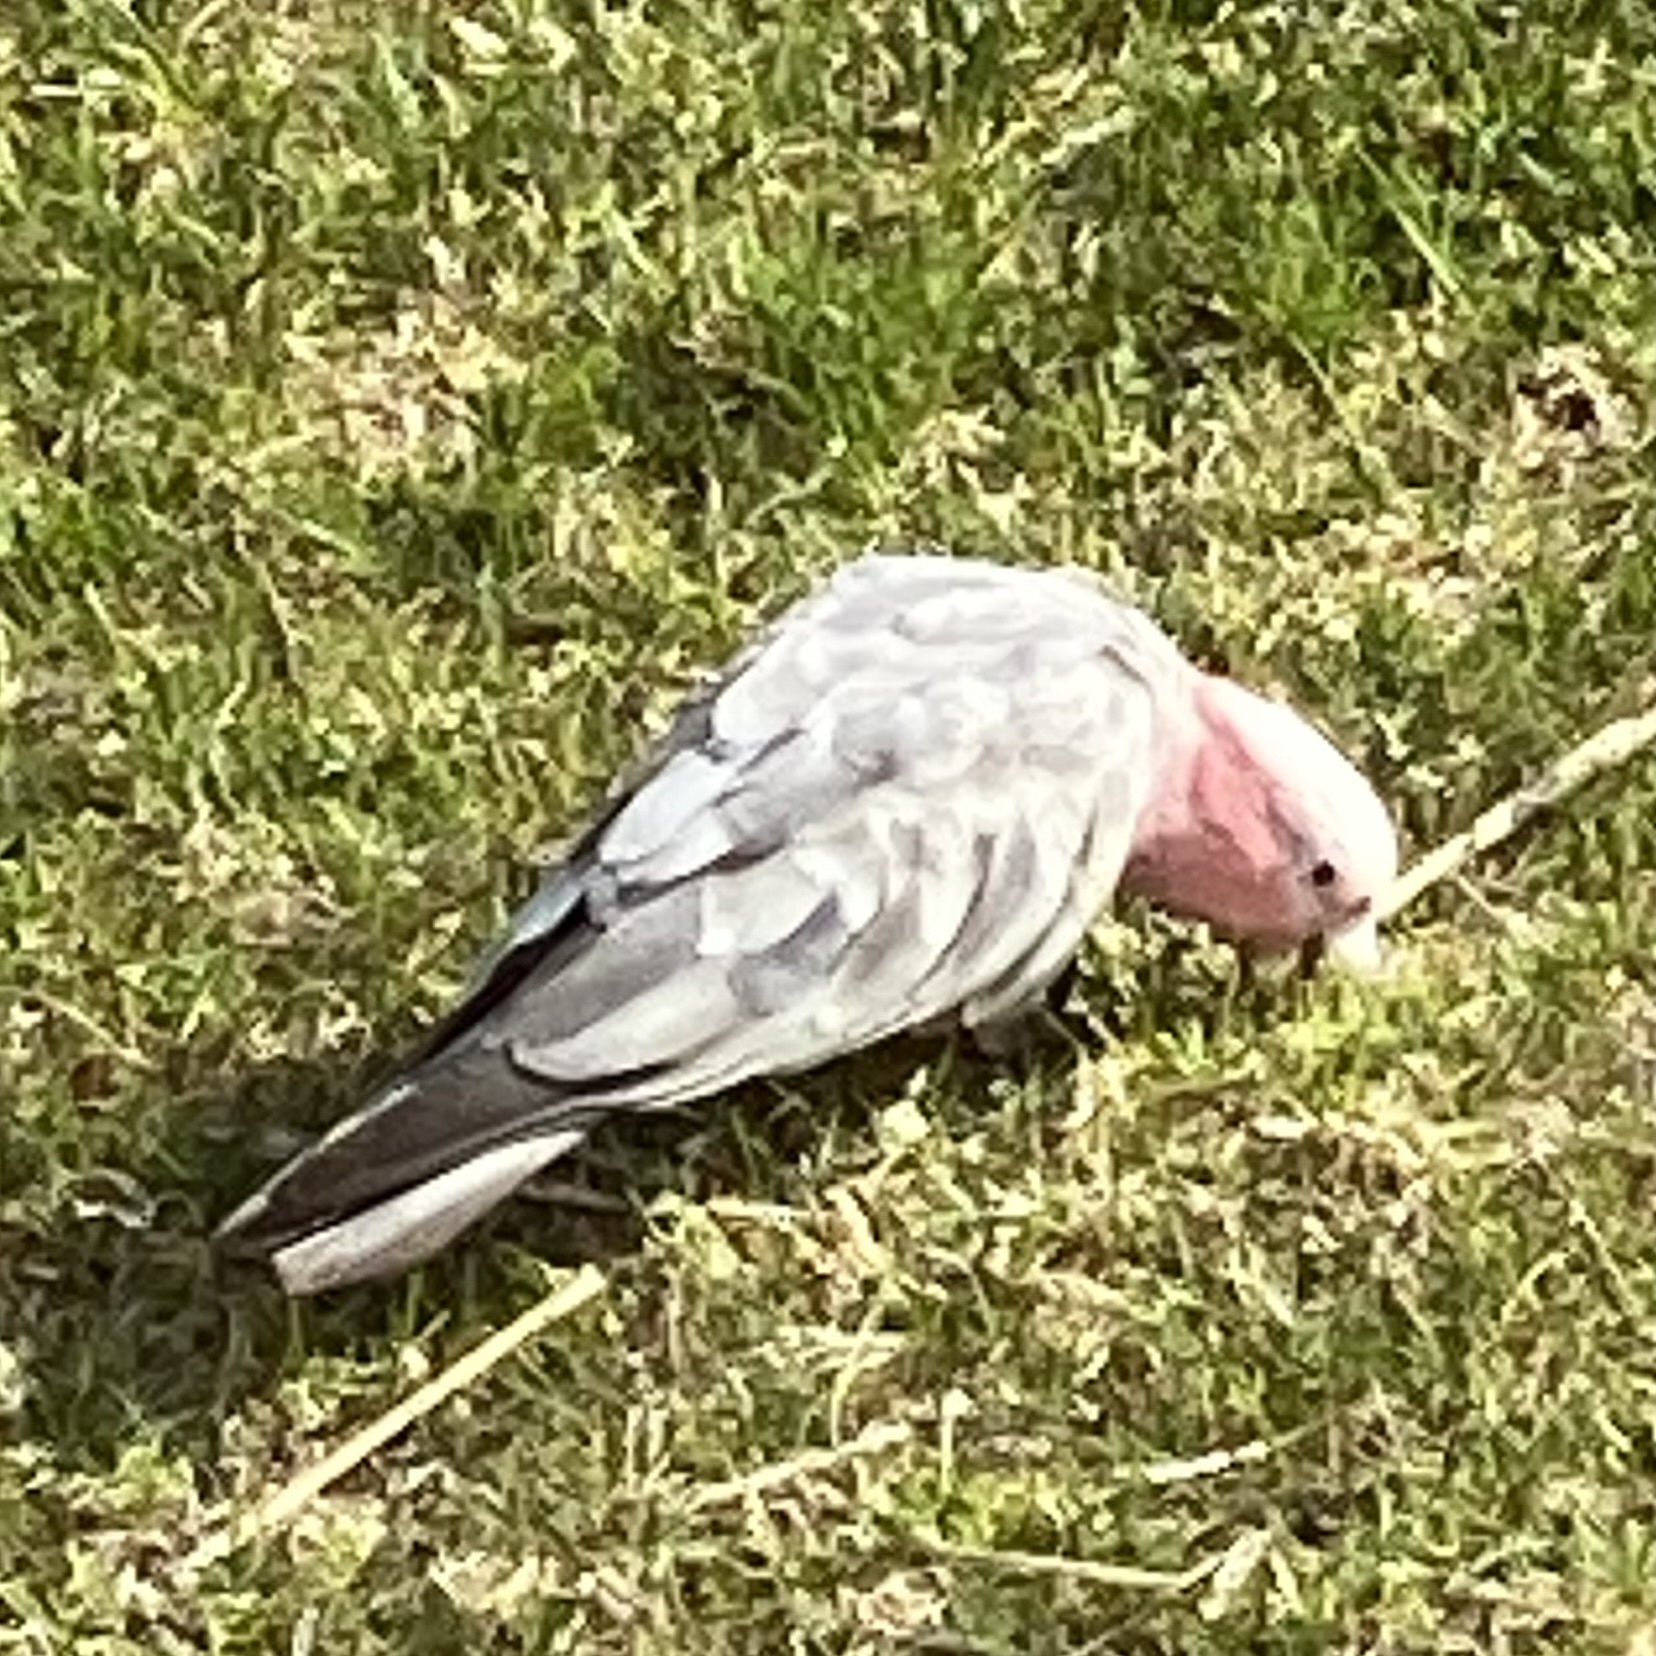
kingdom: Animalia
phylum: Chordata
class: Aves
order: Psittaciformes
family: Psittacidae
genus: Eolophus
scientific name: Eolophus roseicapilla
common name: Galah
